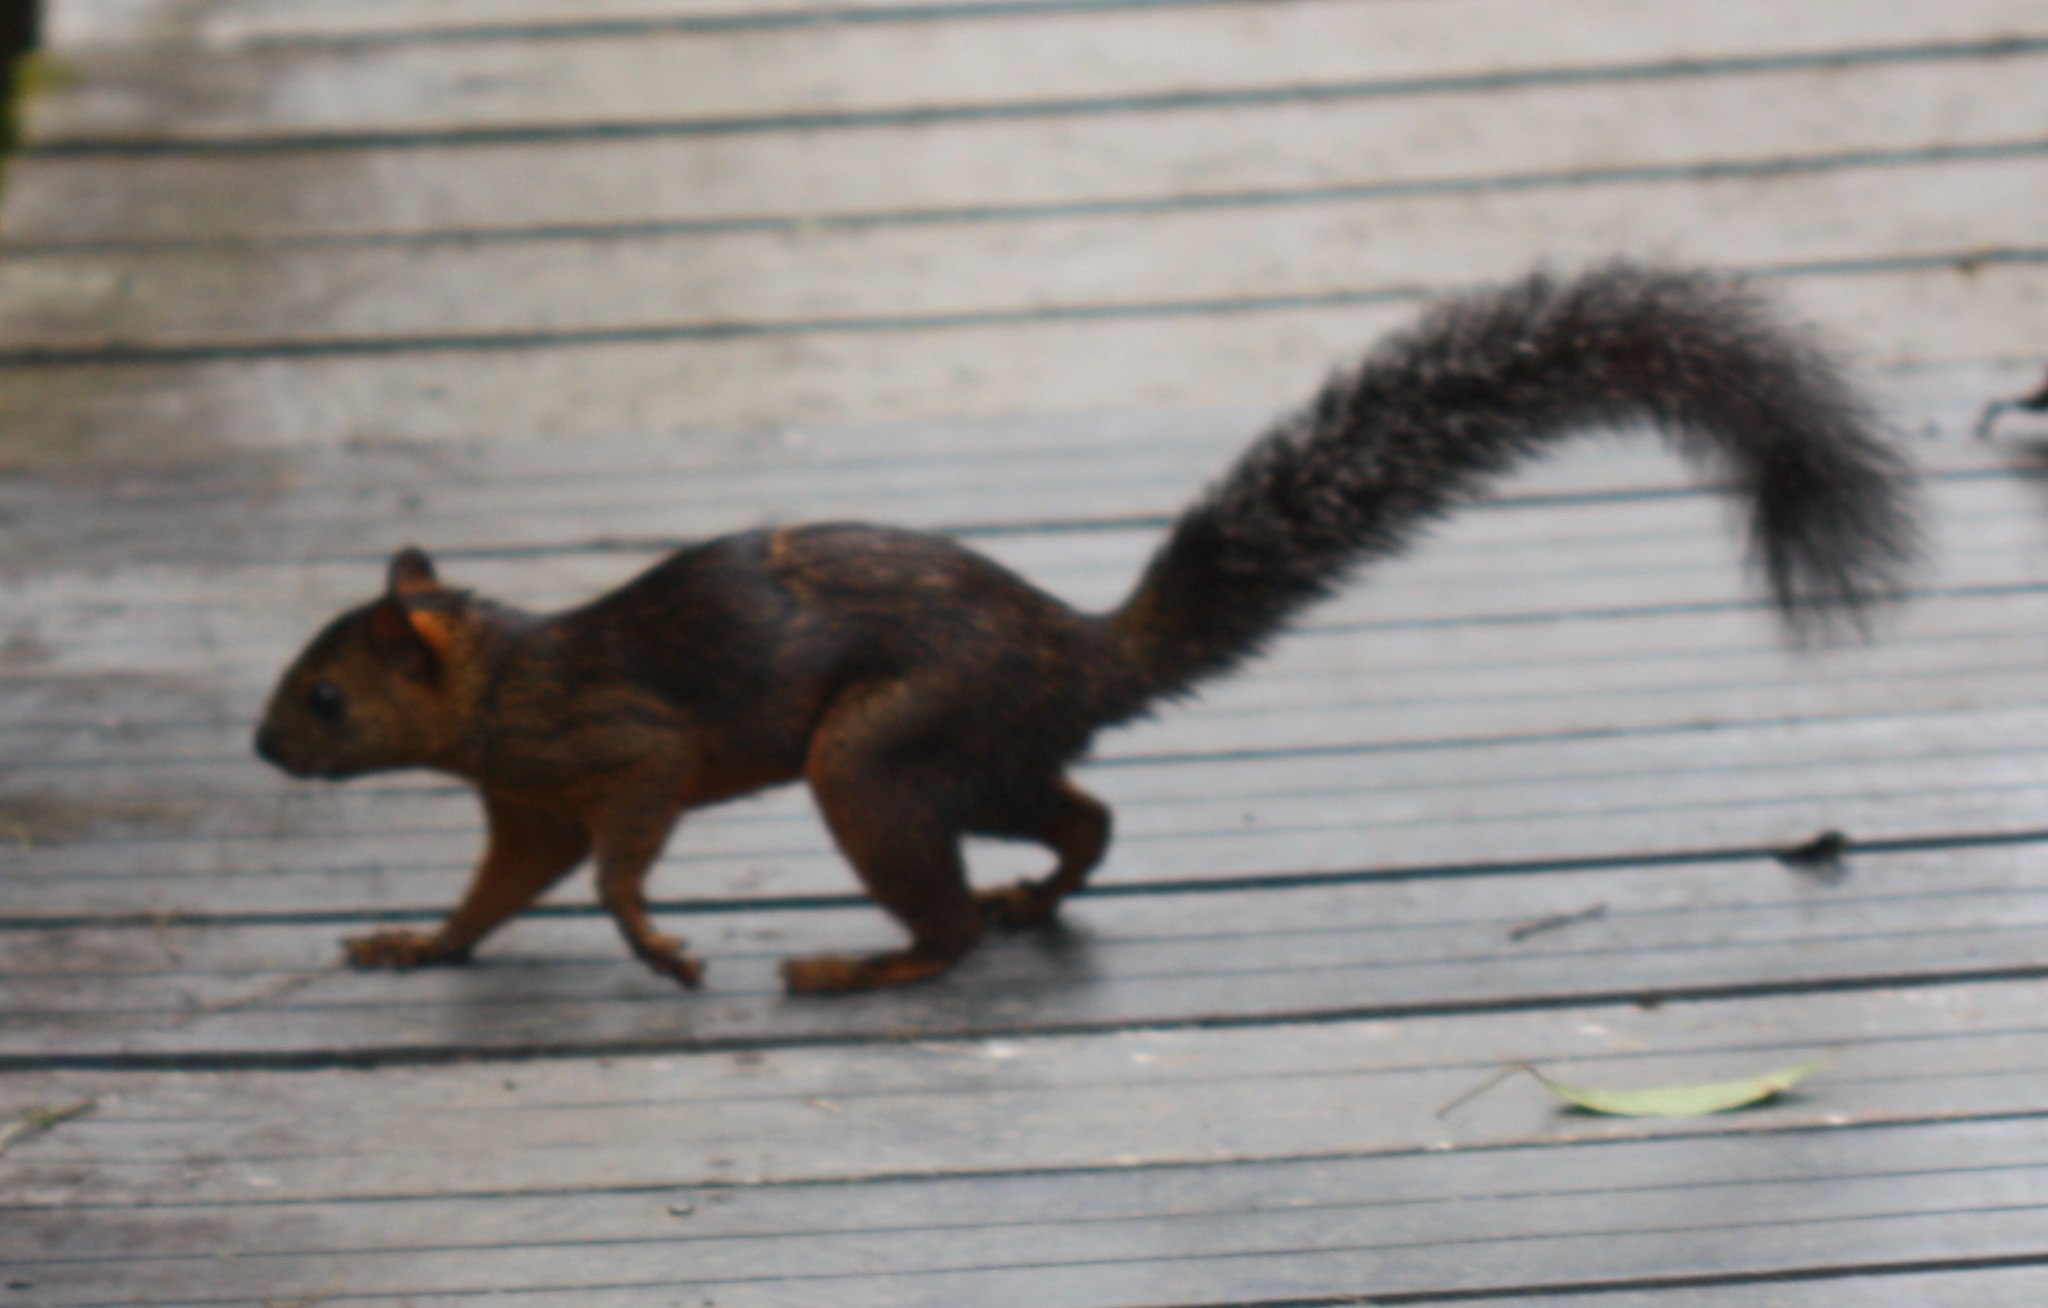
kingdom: Animalia
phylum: Chordata
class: Mammalia
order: Rodentia
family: Sciuridae
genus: Sciurus
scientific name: Sciurus variegatoides
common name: Variegated squirrel
